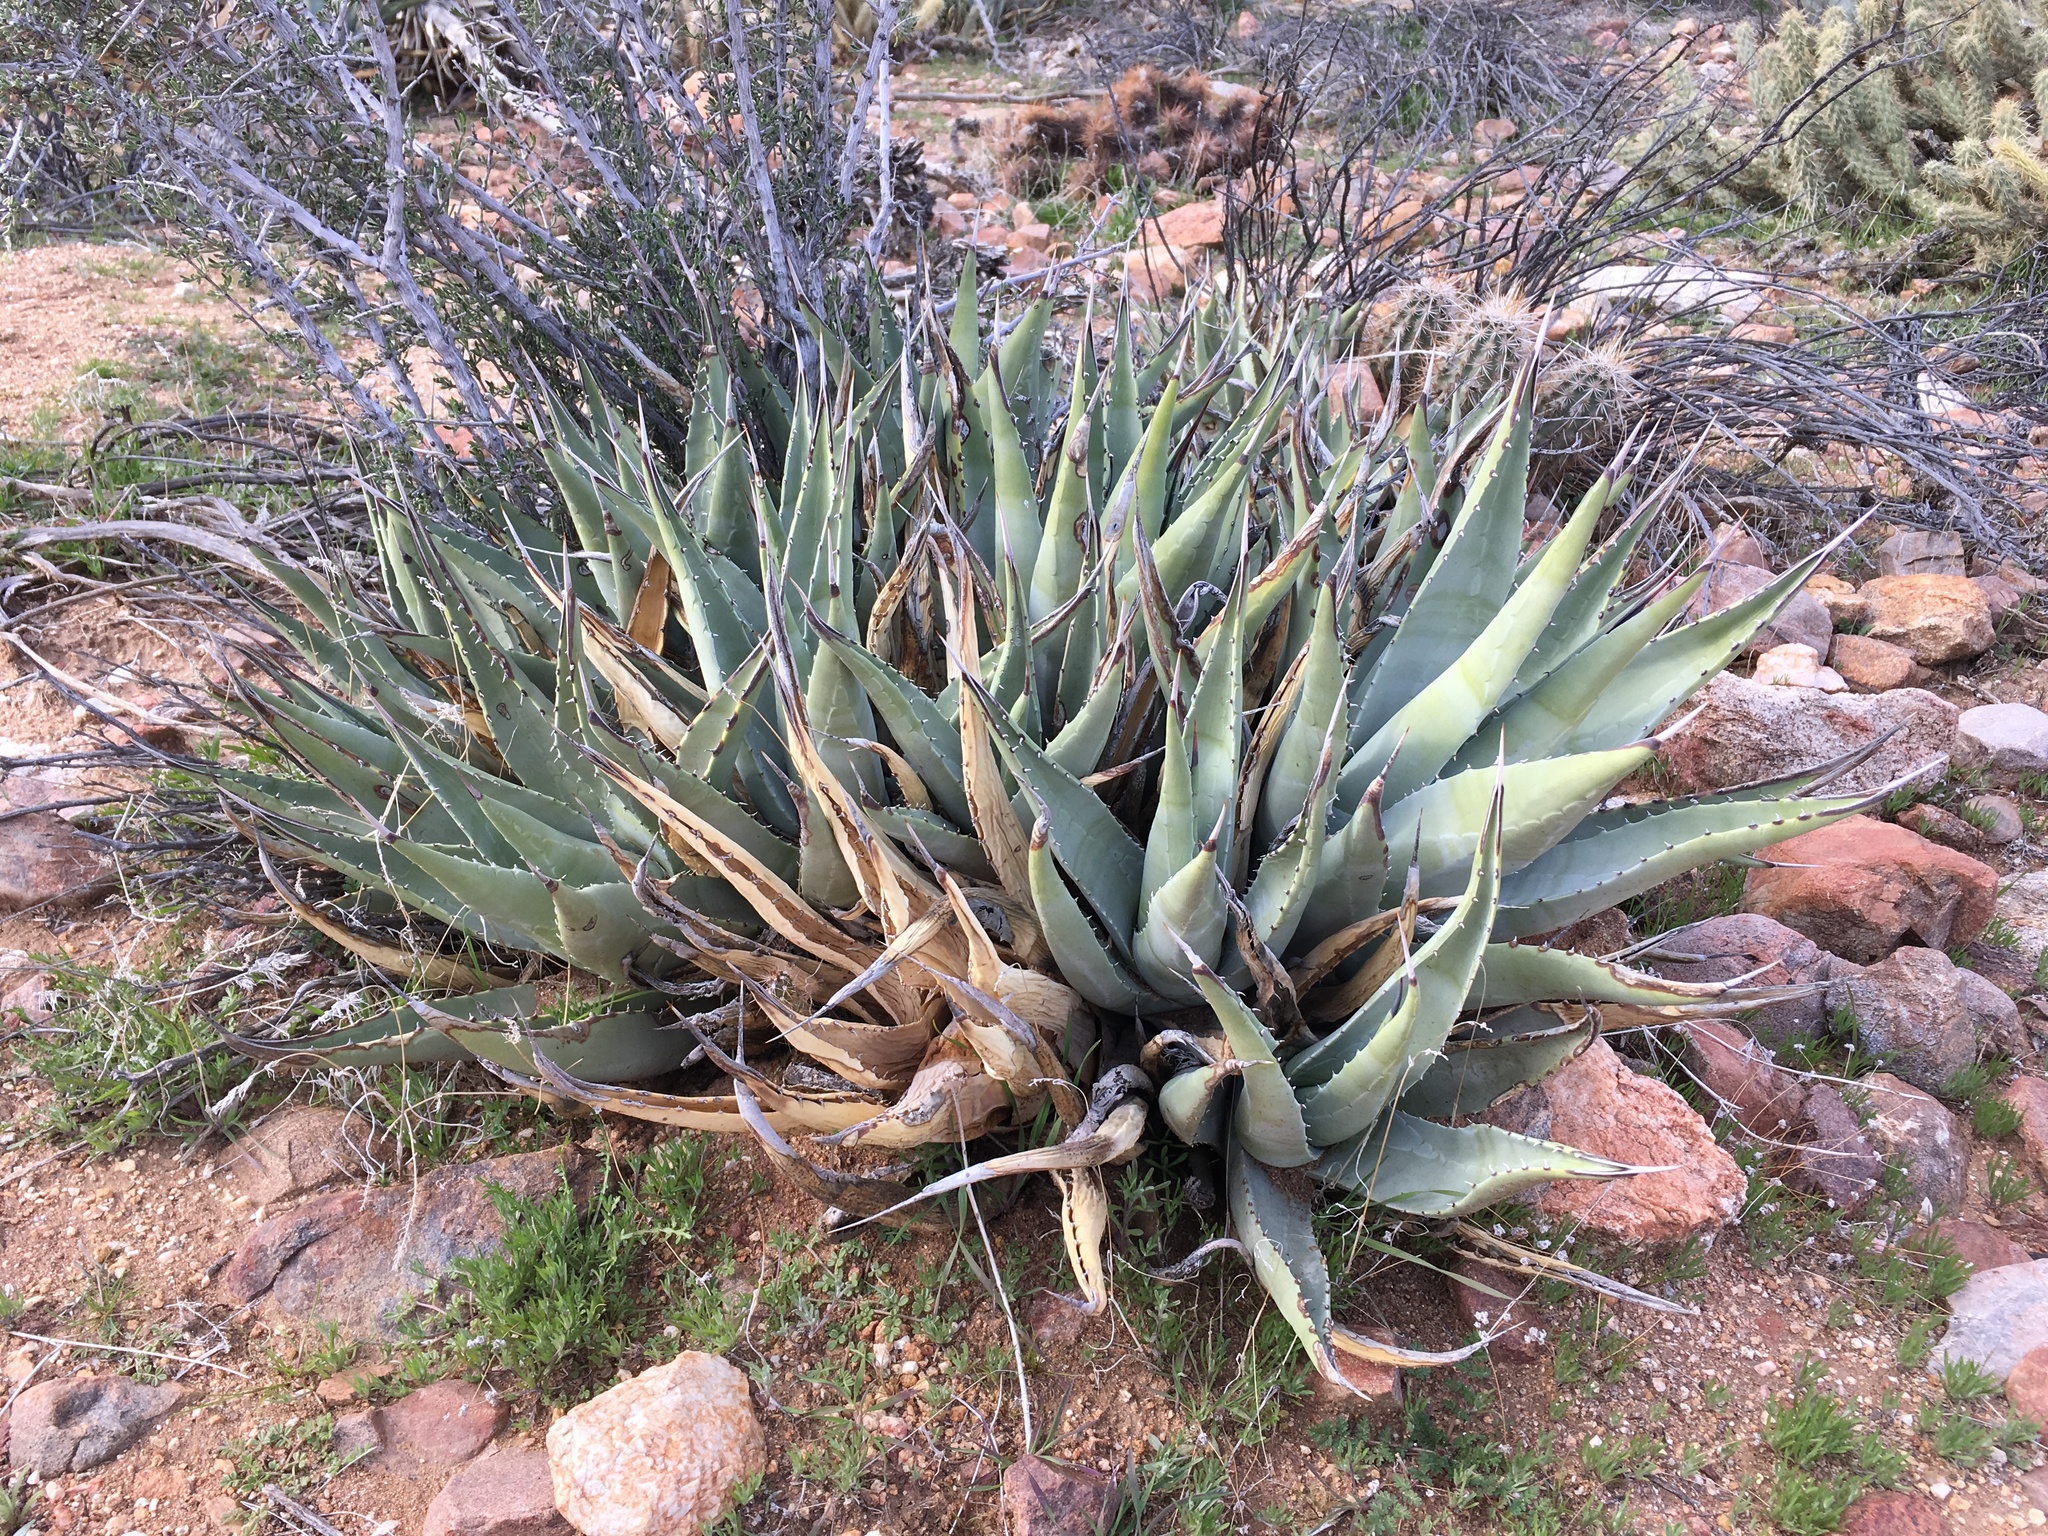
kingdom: Plantae
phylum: Tracheophyta
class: Liliopsida
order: Asparagales
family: Asparagaceae
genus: Agave
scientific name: Agave deserti
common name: Desert agave
